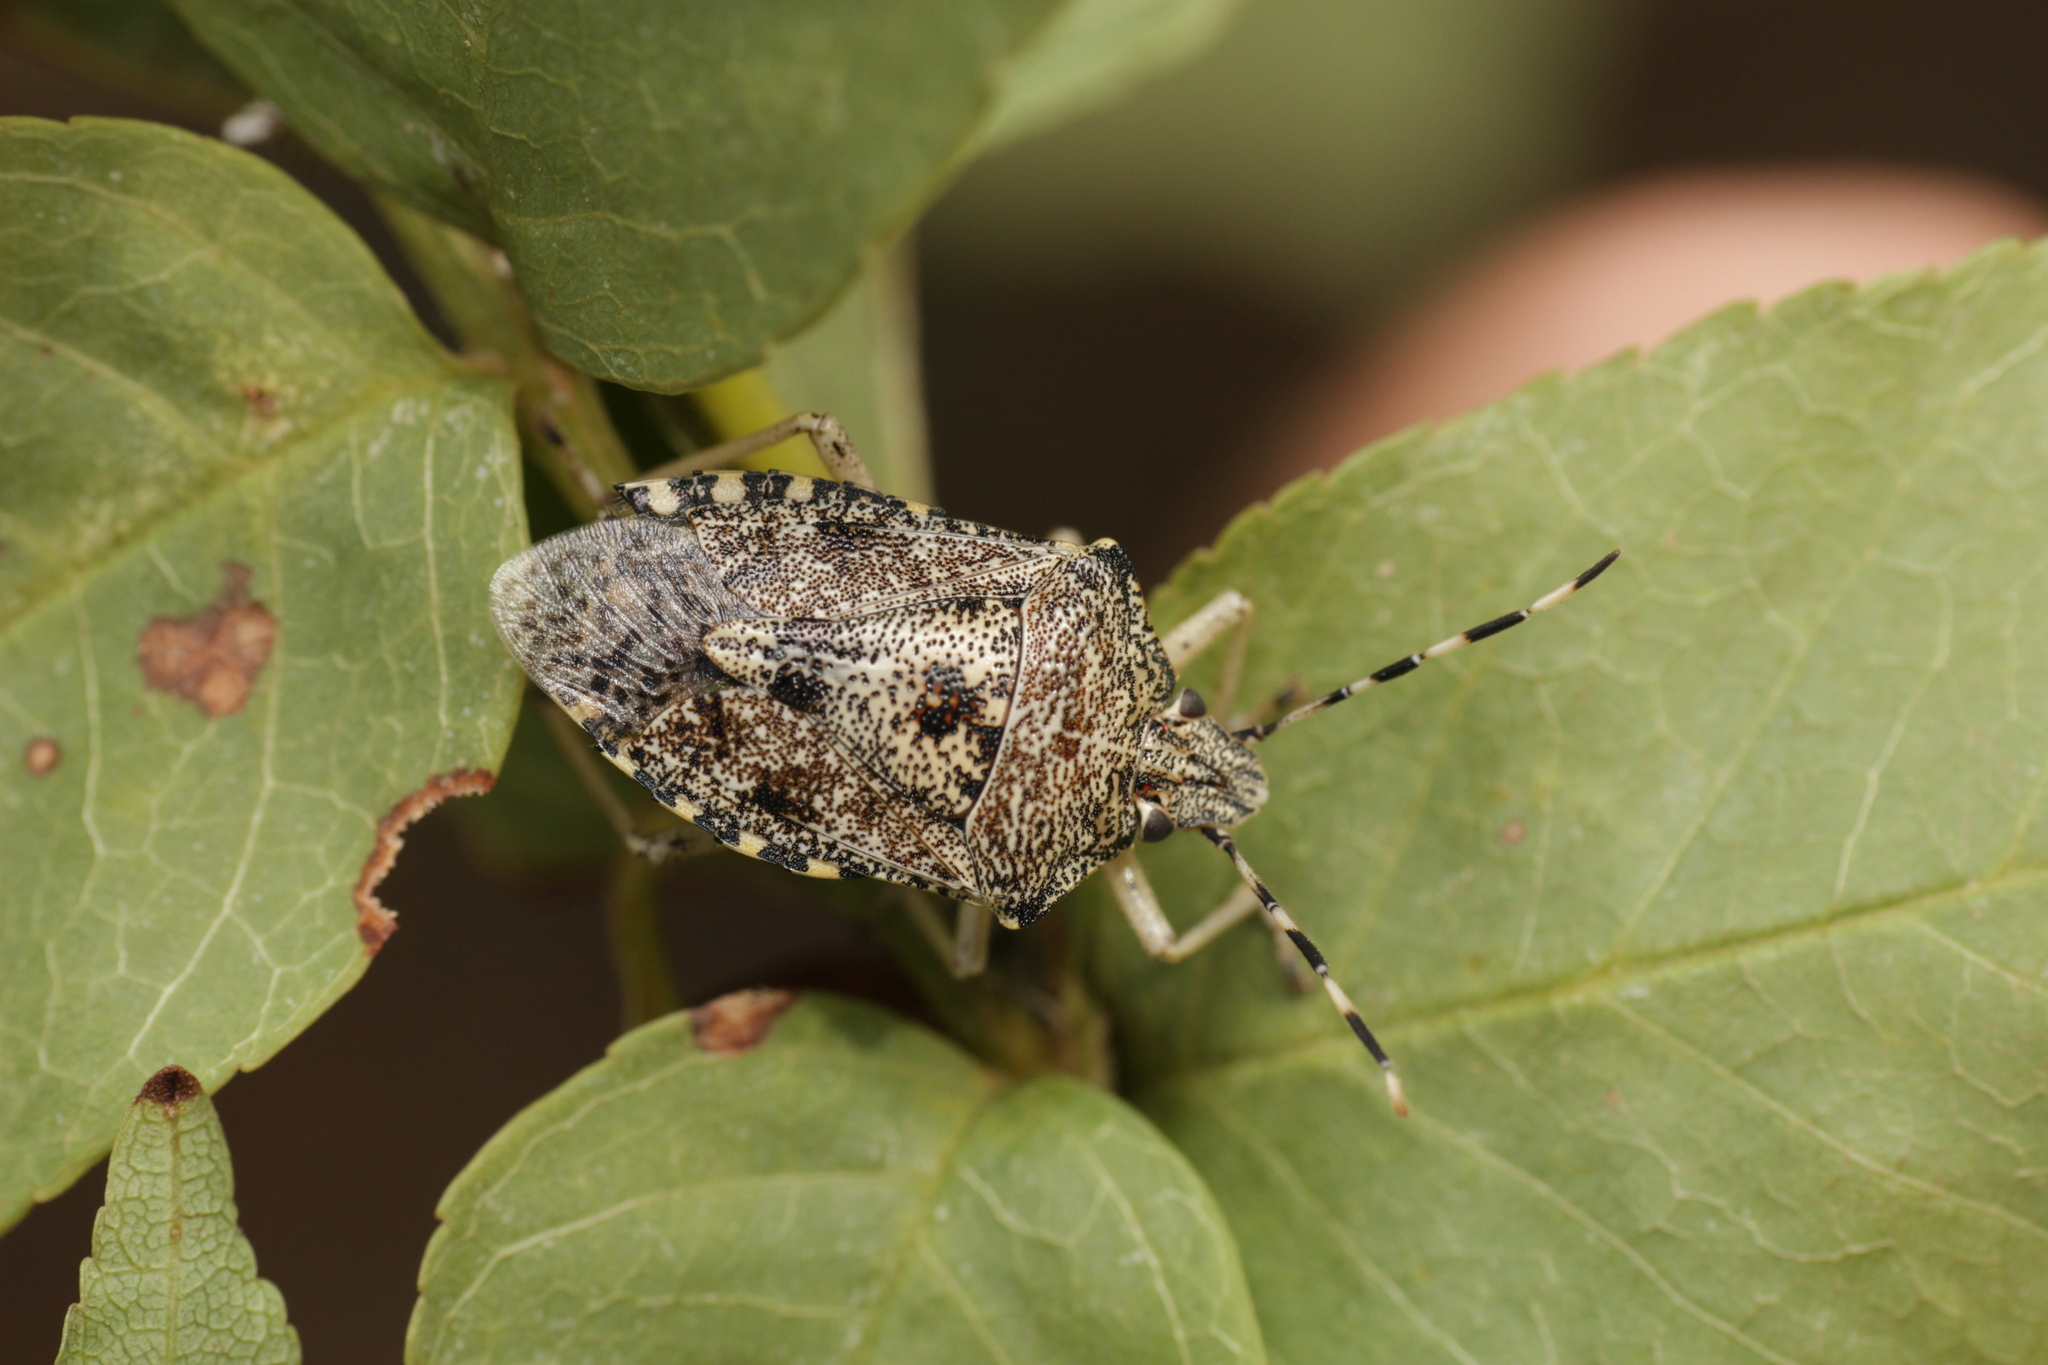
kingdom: Animalia
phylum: Arthropoda
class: Insecta
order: Hemiptera
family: Pentatomidae
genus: Rhaphigaster
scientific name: Rhaphigaster nebulosa
